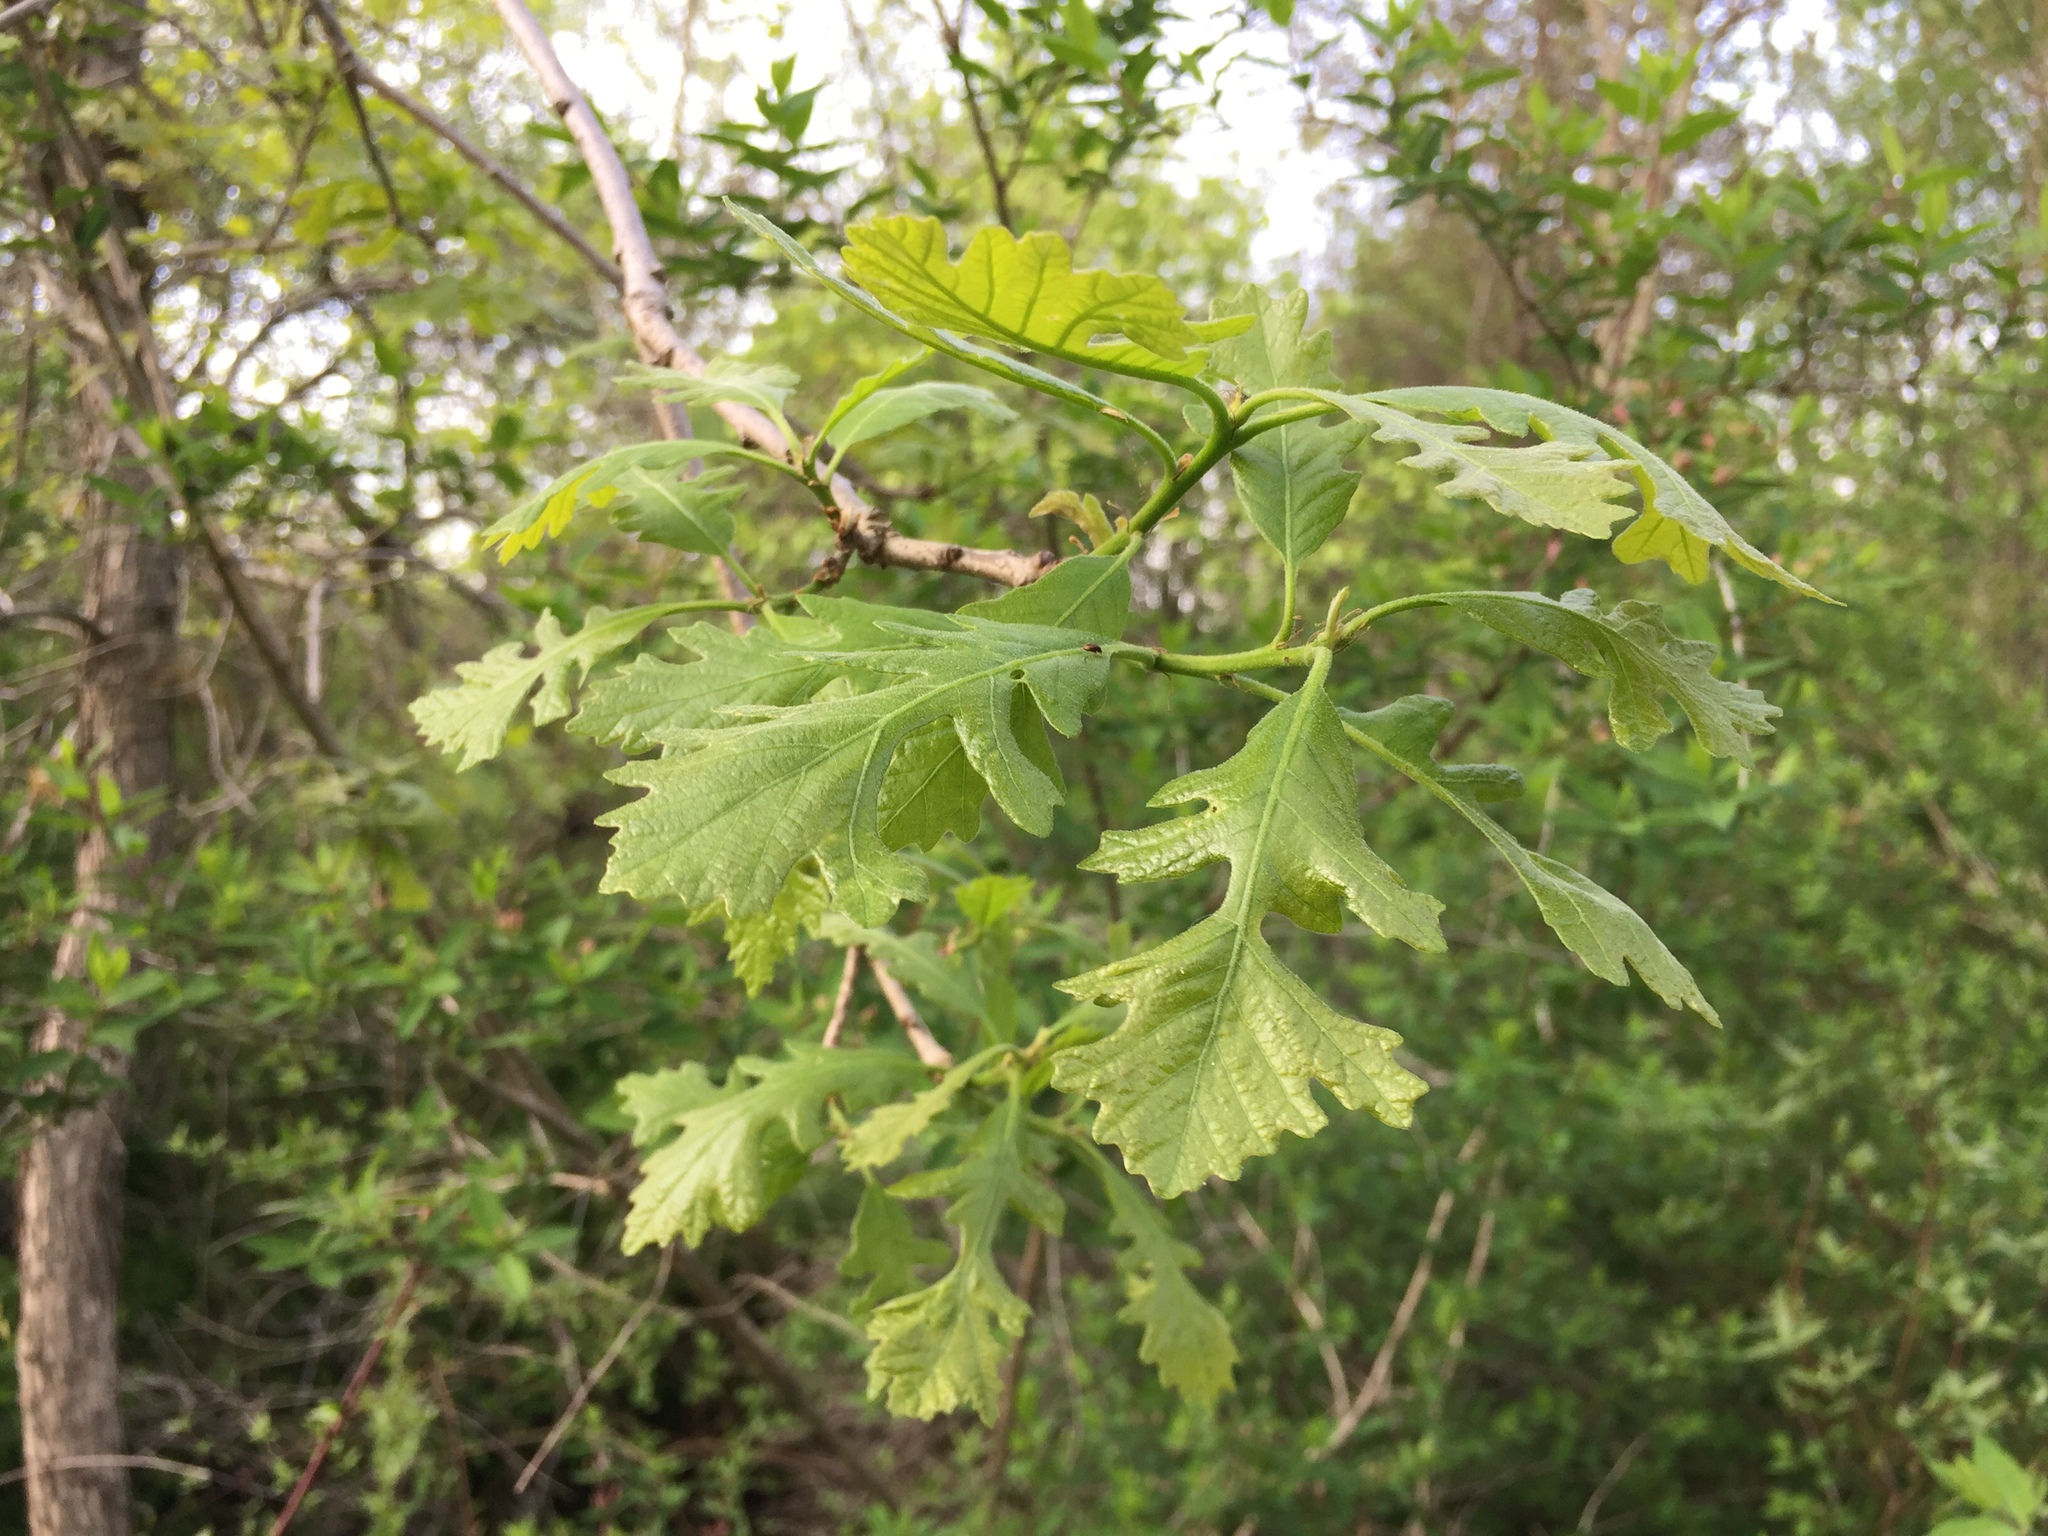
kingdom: Plantae
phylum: Tracheophyta
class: Magnoliopsida
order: Fagales
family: Fagaceae
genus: Quercus
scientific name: Quercus macrocarpa
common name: Bur oak
